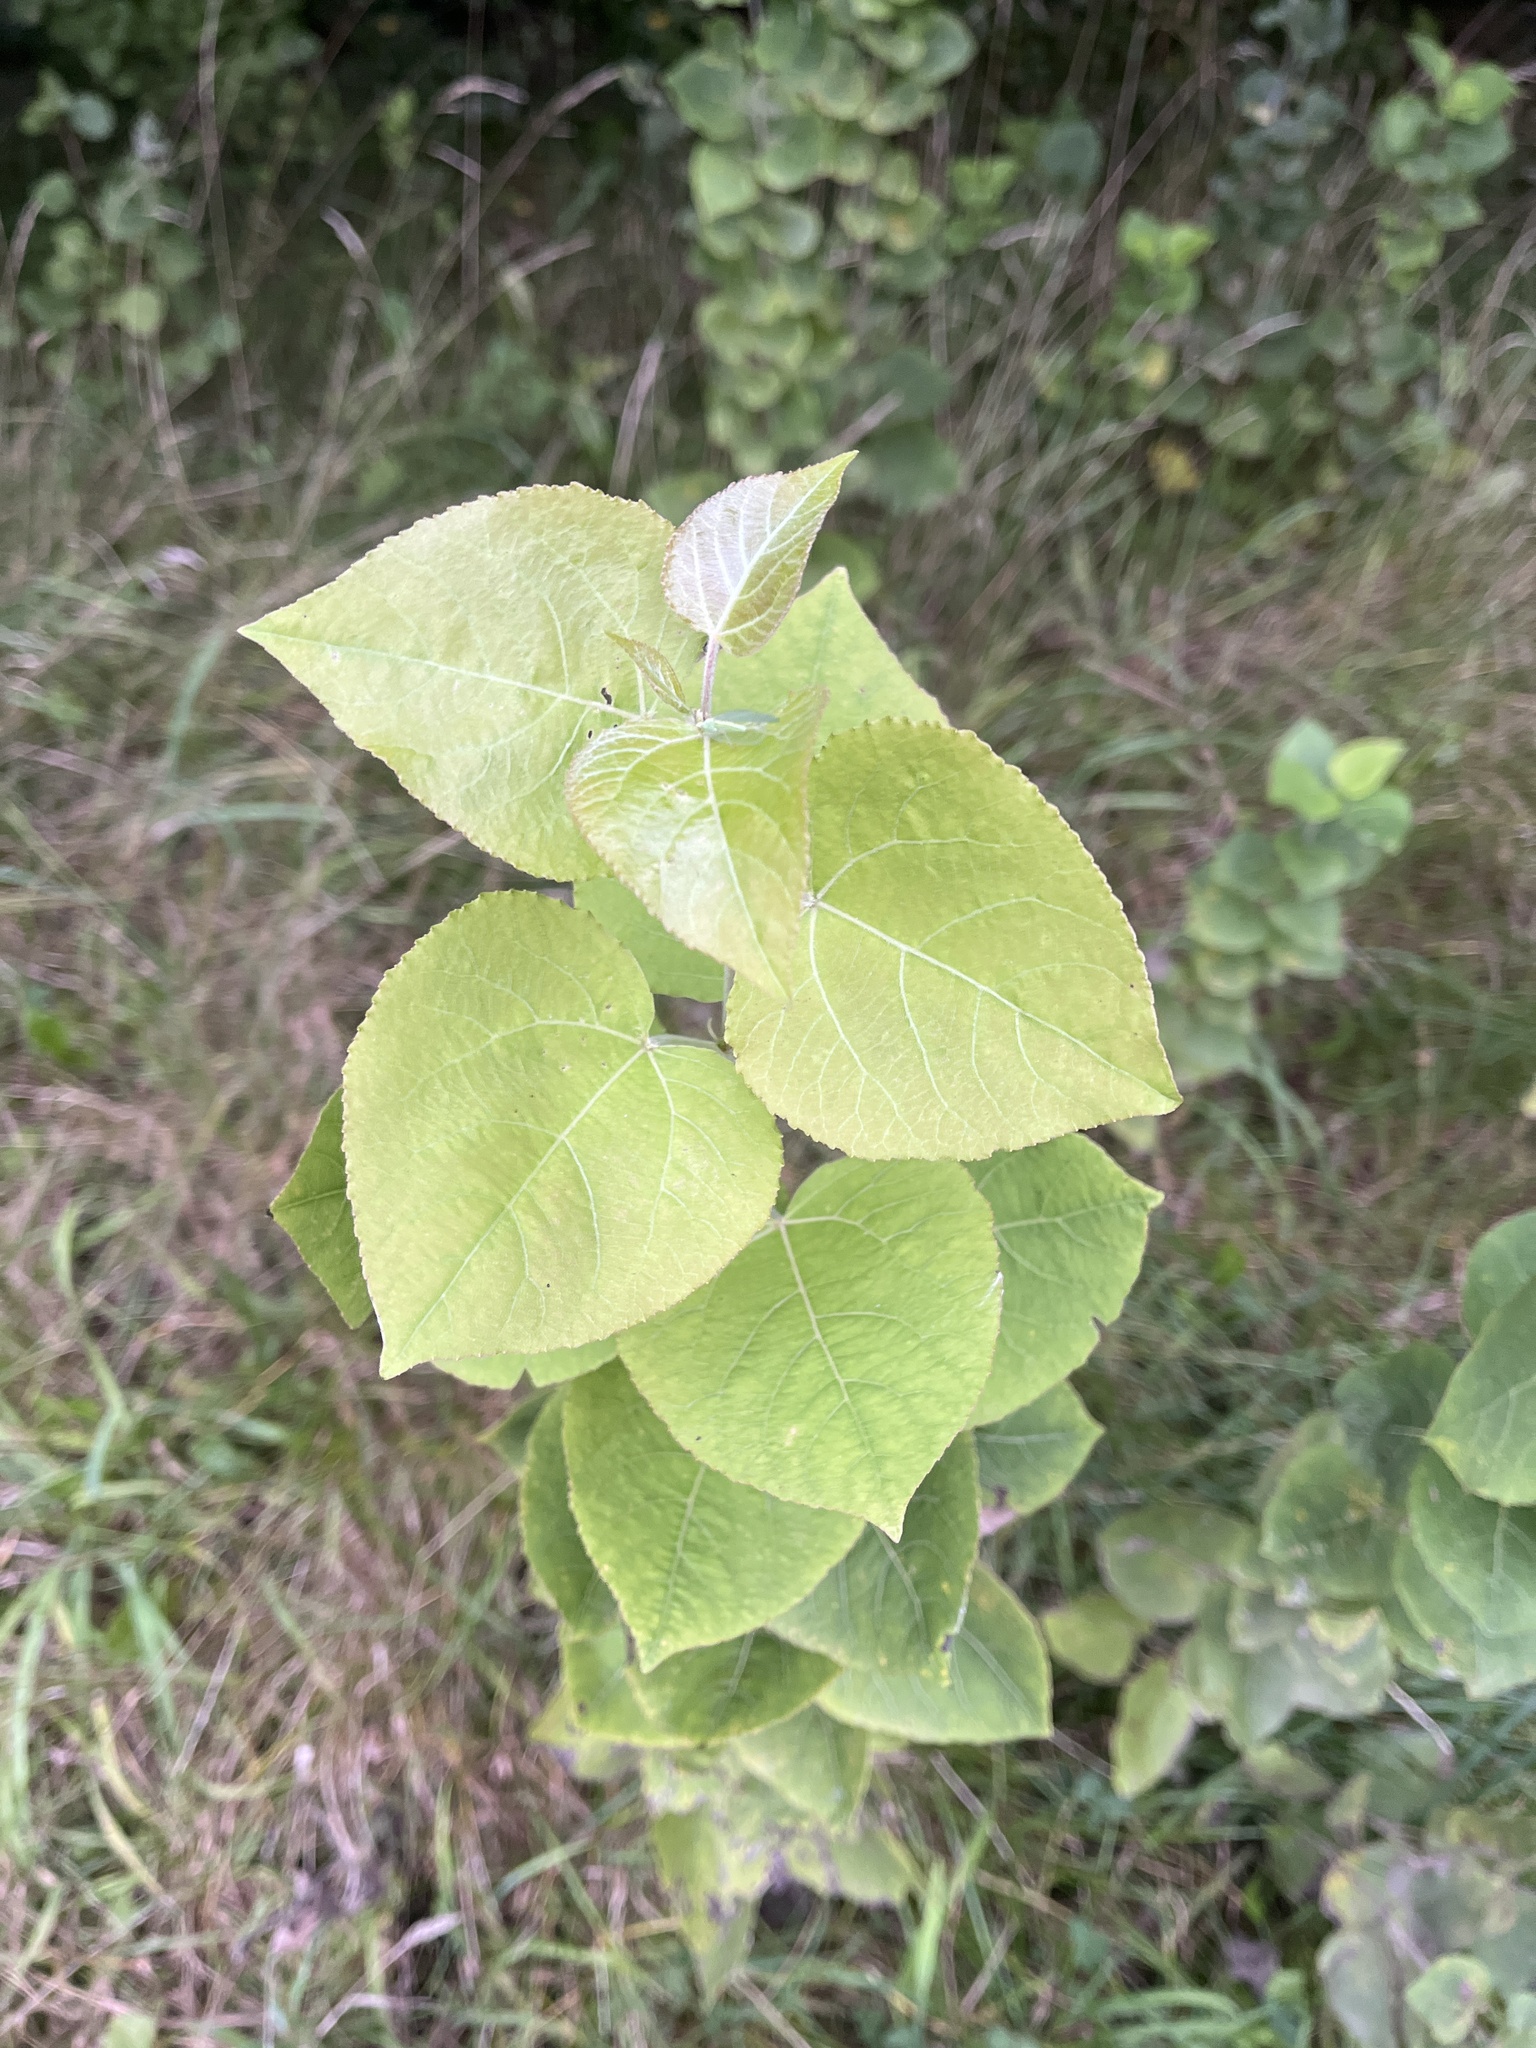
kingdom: Plantae
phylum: Tracheophyta
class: Magnoliopsida
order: Malpighiales
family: Salicaceae
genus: Populus
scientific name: Populus tremula
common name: European aspen
